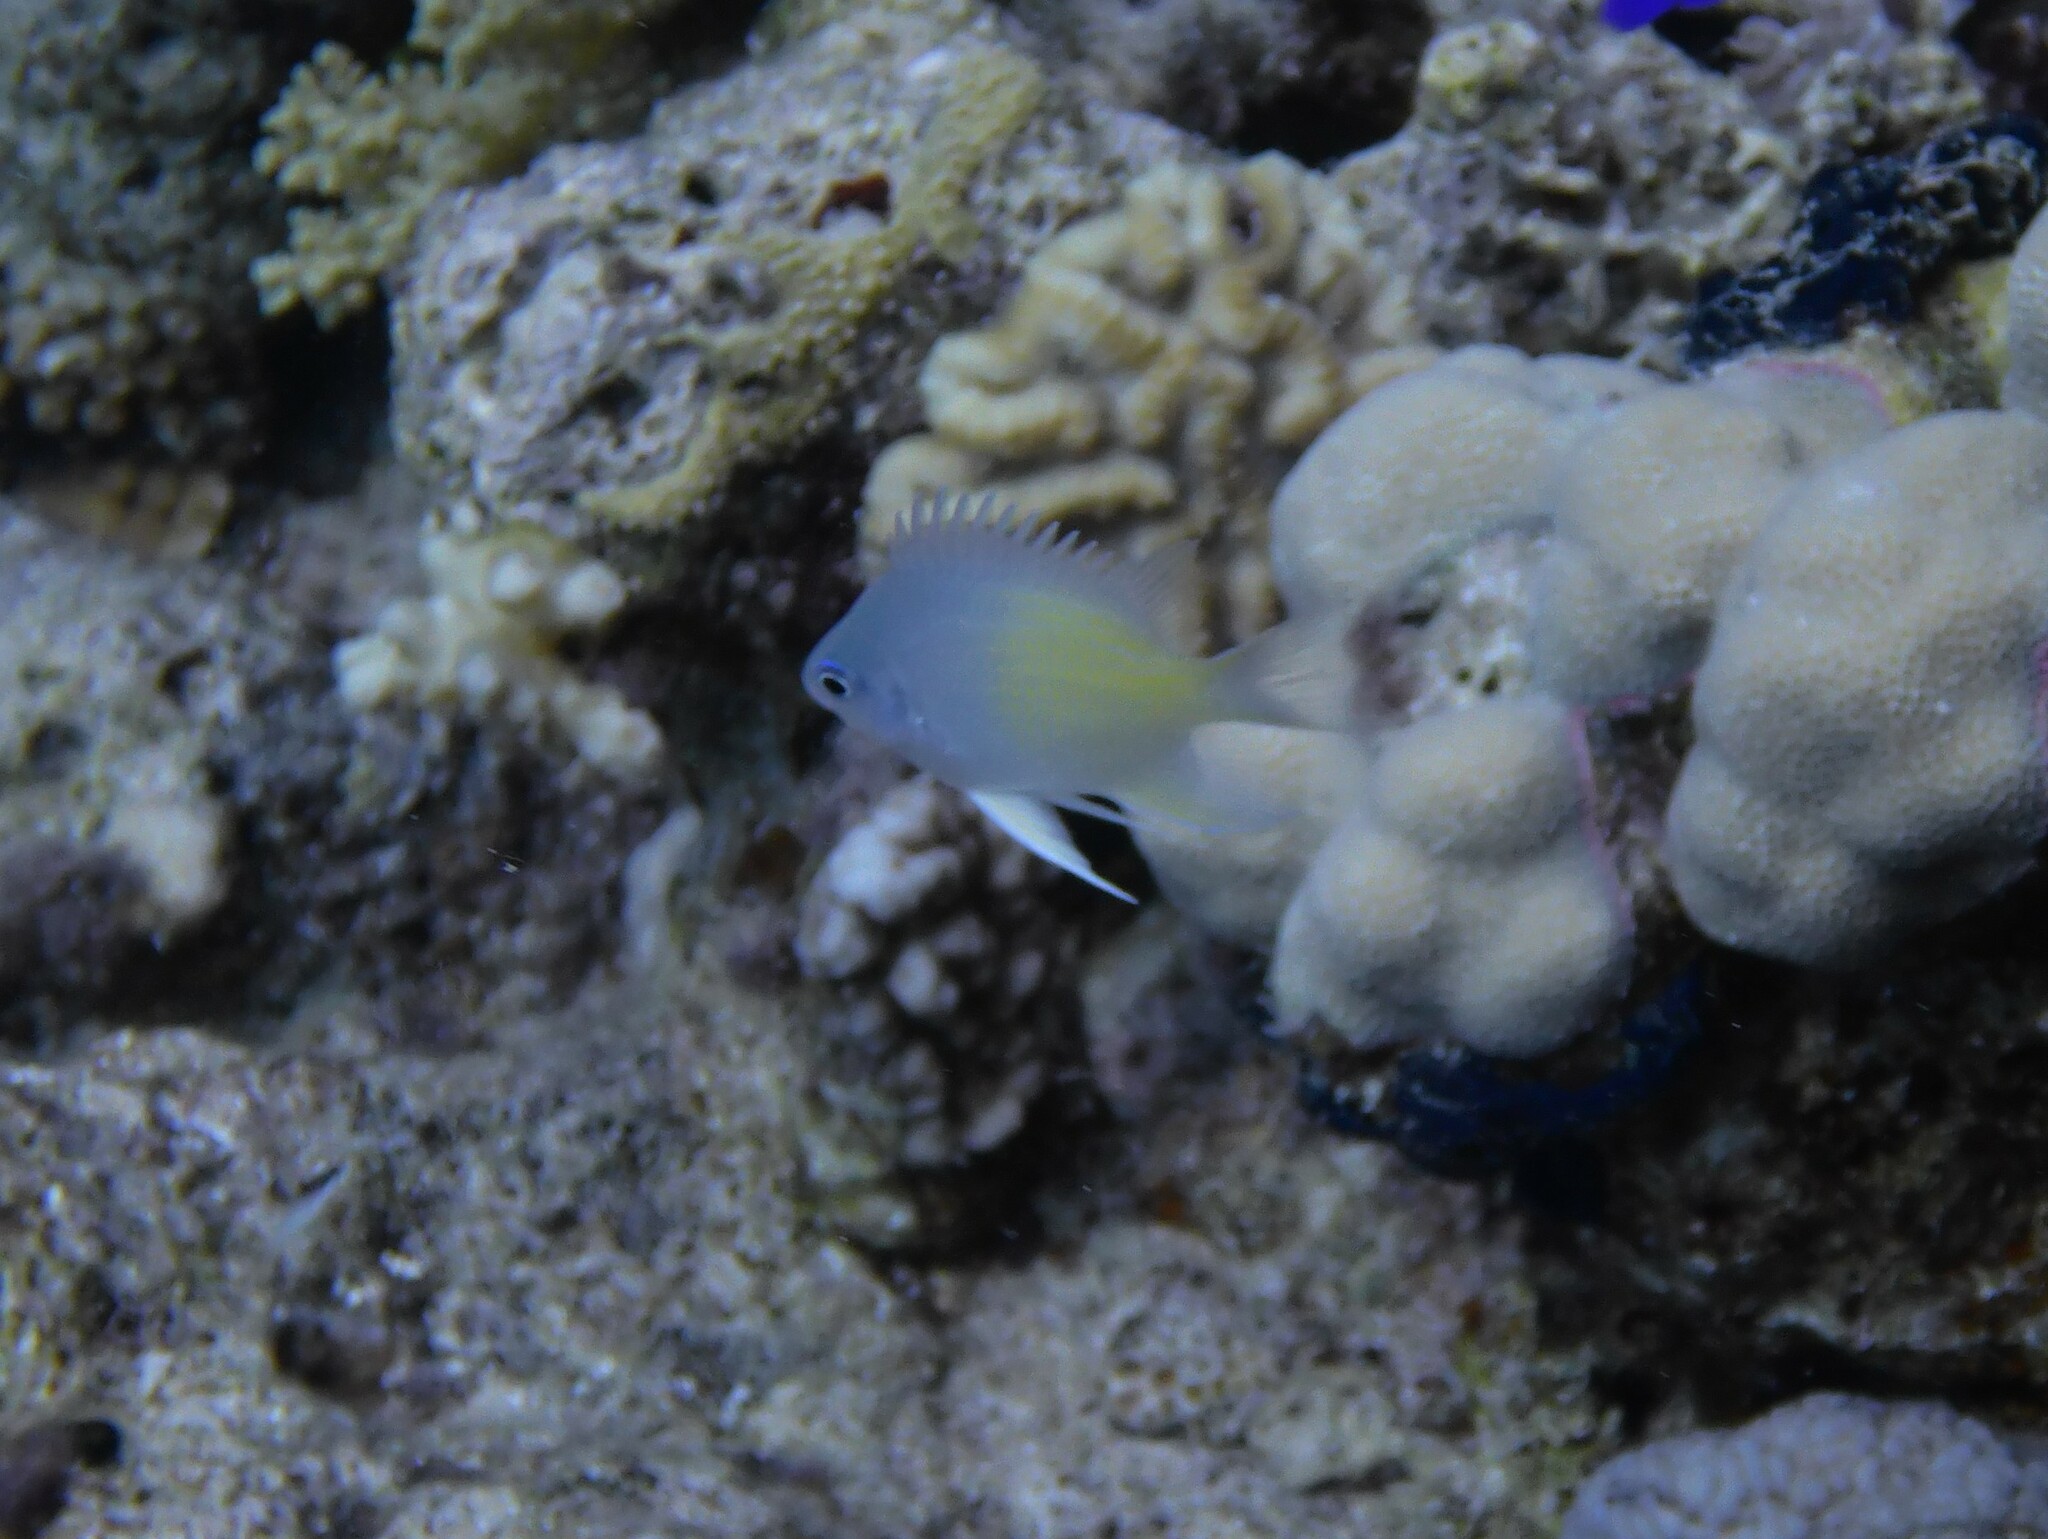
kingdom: Animalia
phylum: Chordata
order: Perciformes
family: Pomacentridae
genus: Amblyglyphidodon
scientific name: Amblyglyphidodon flavilatus
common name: Yellowfin damsel
